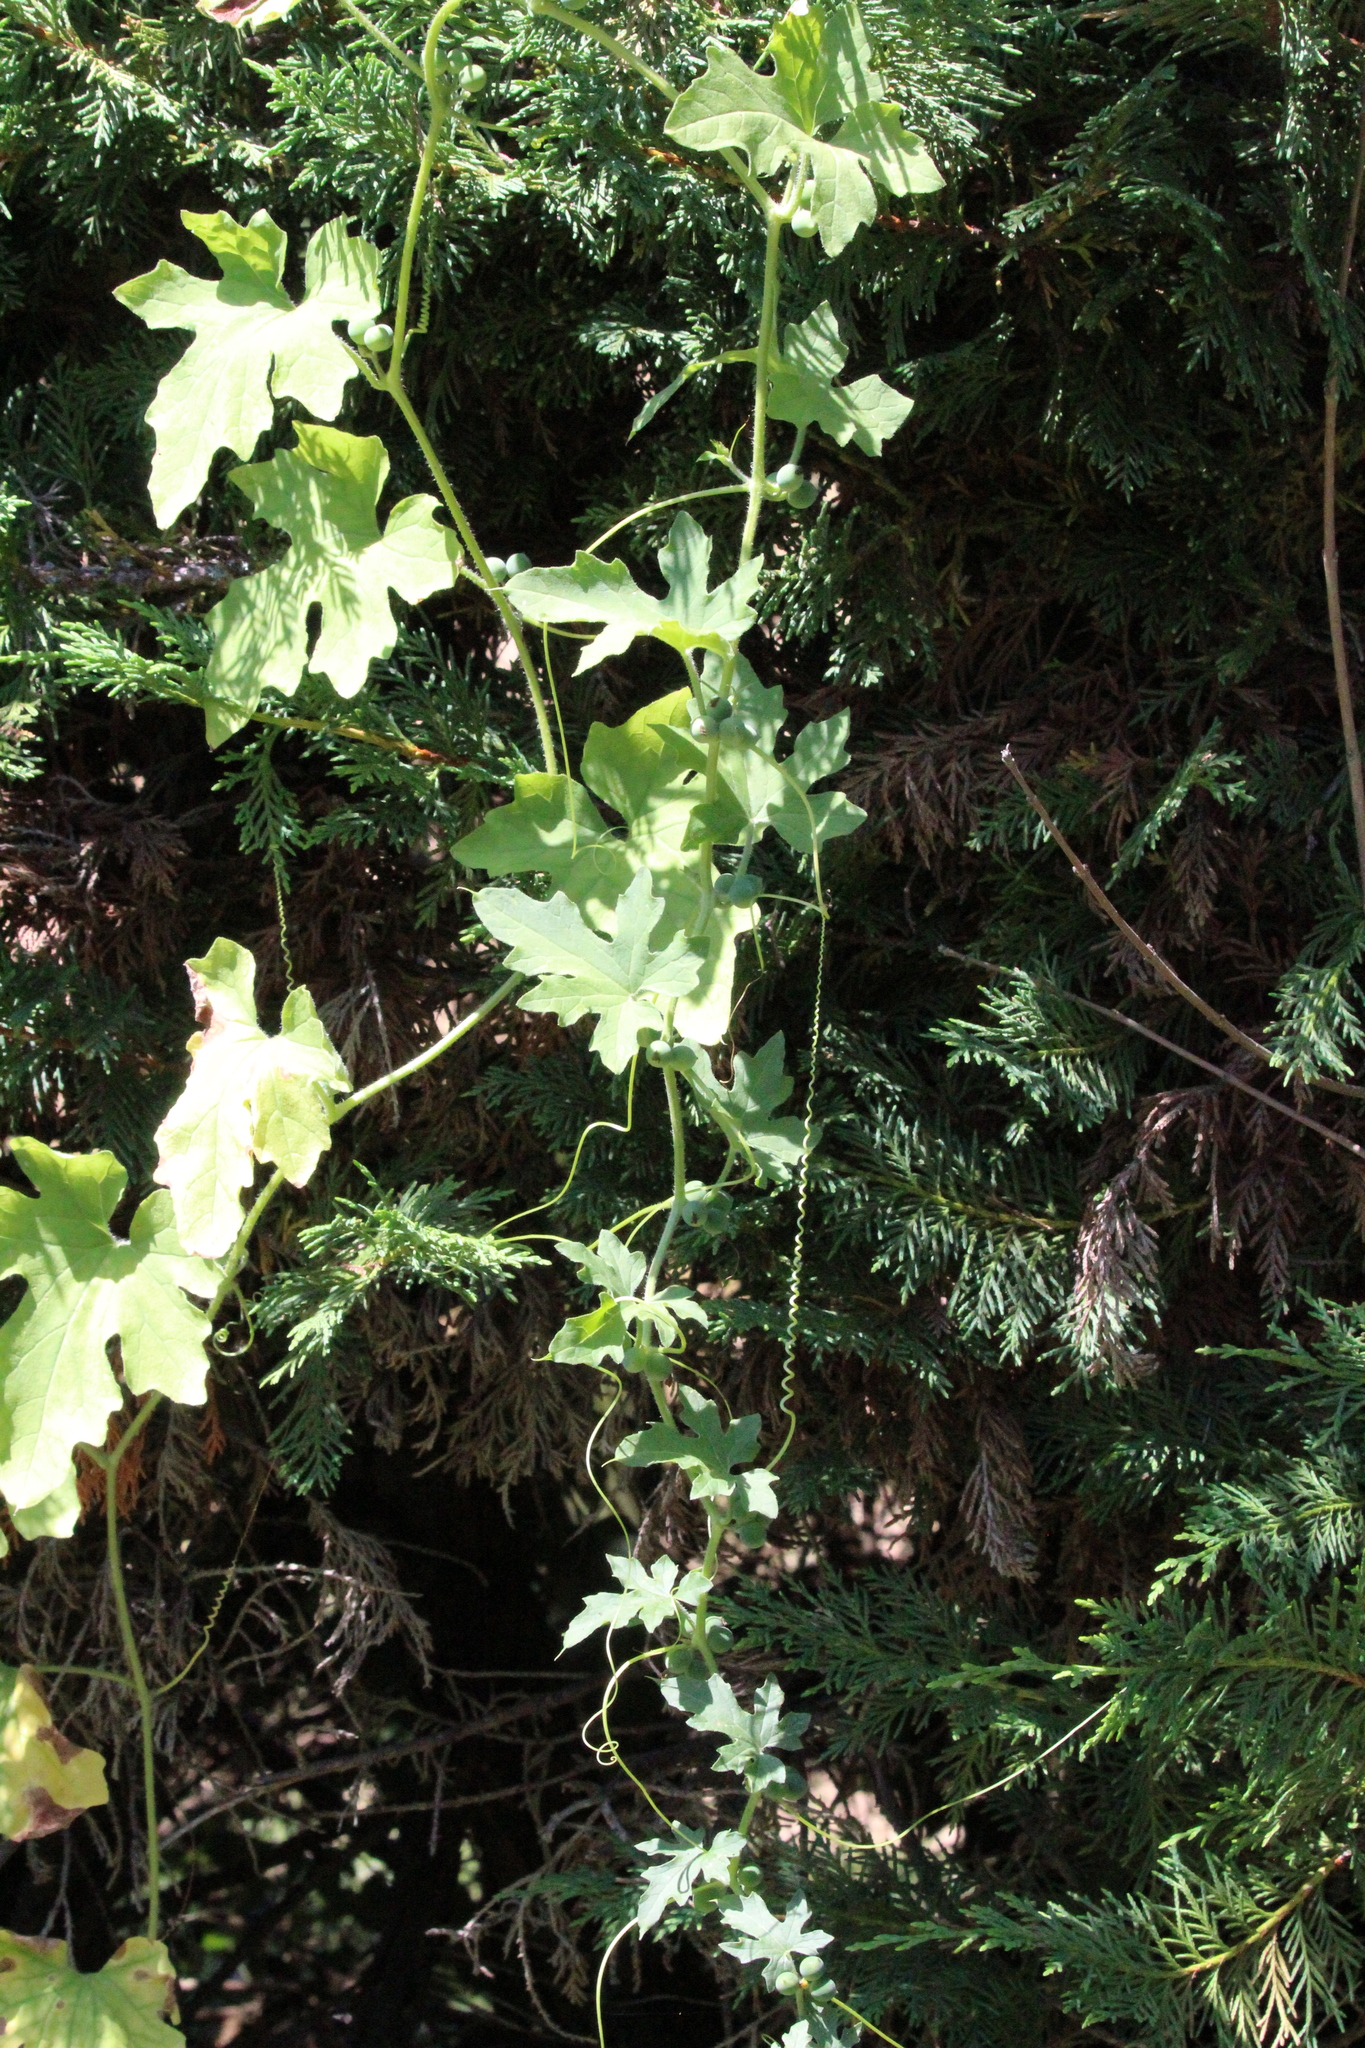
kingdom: Plantae
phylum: Tracheophyta
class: Magnoliopsida
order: Cucurbitales
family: Cucurbitaceae
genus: Bryonia
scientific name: Bryonia dioica
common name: White bryony
